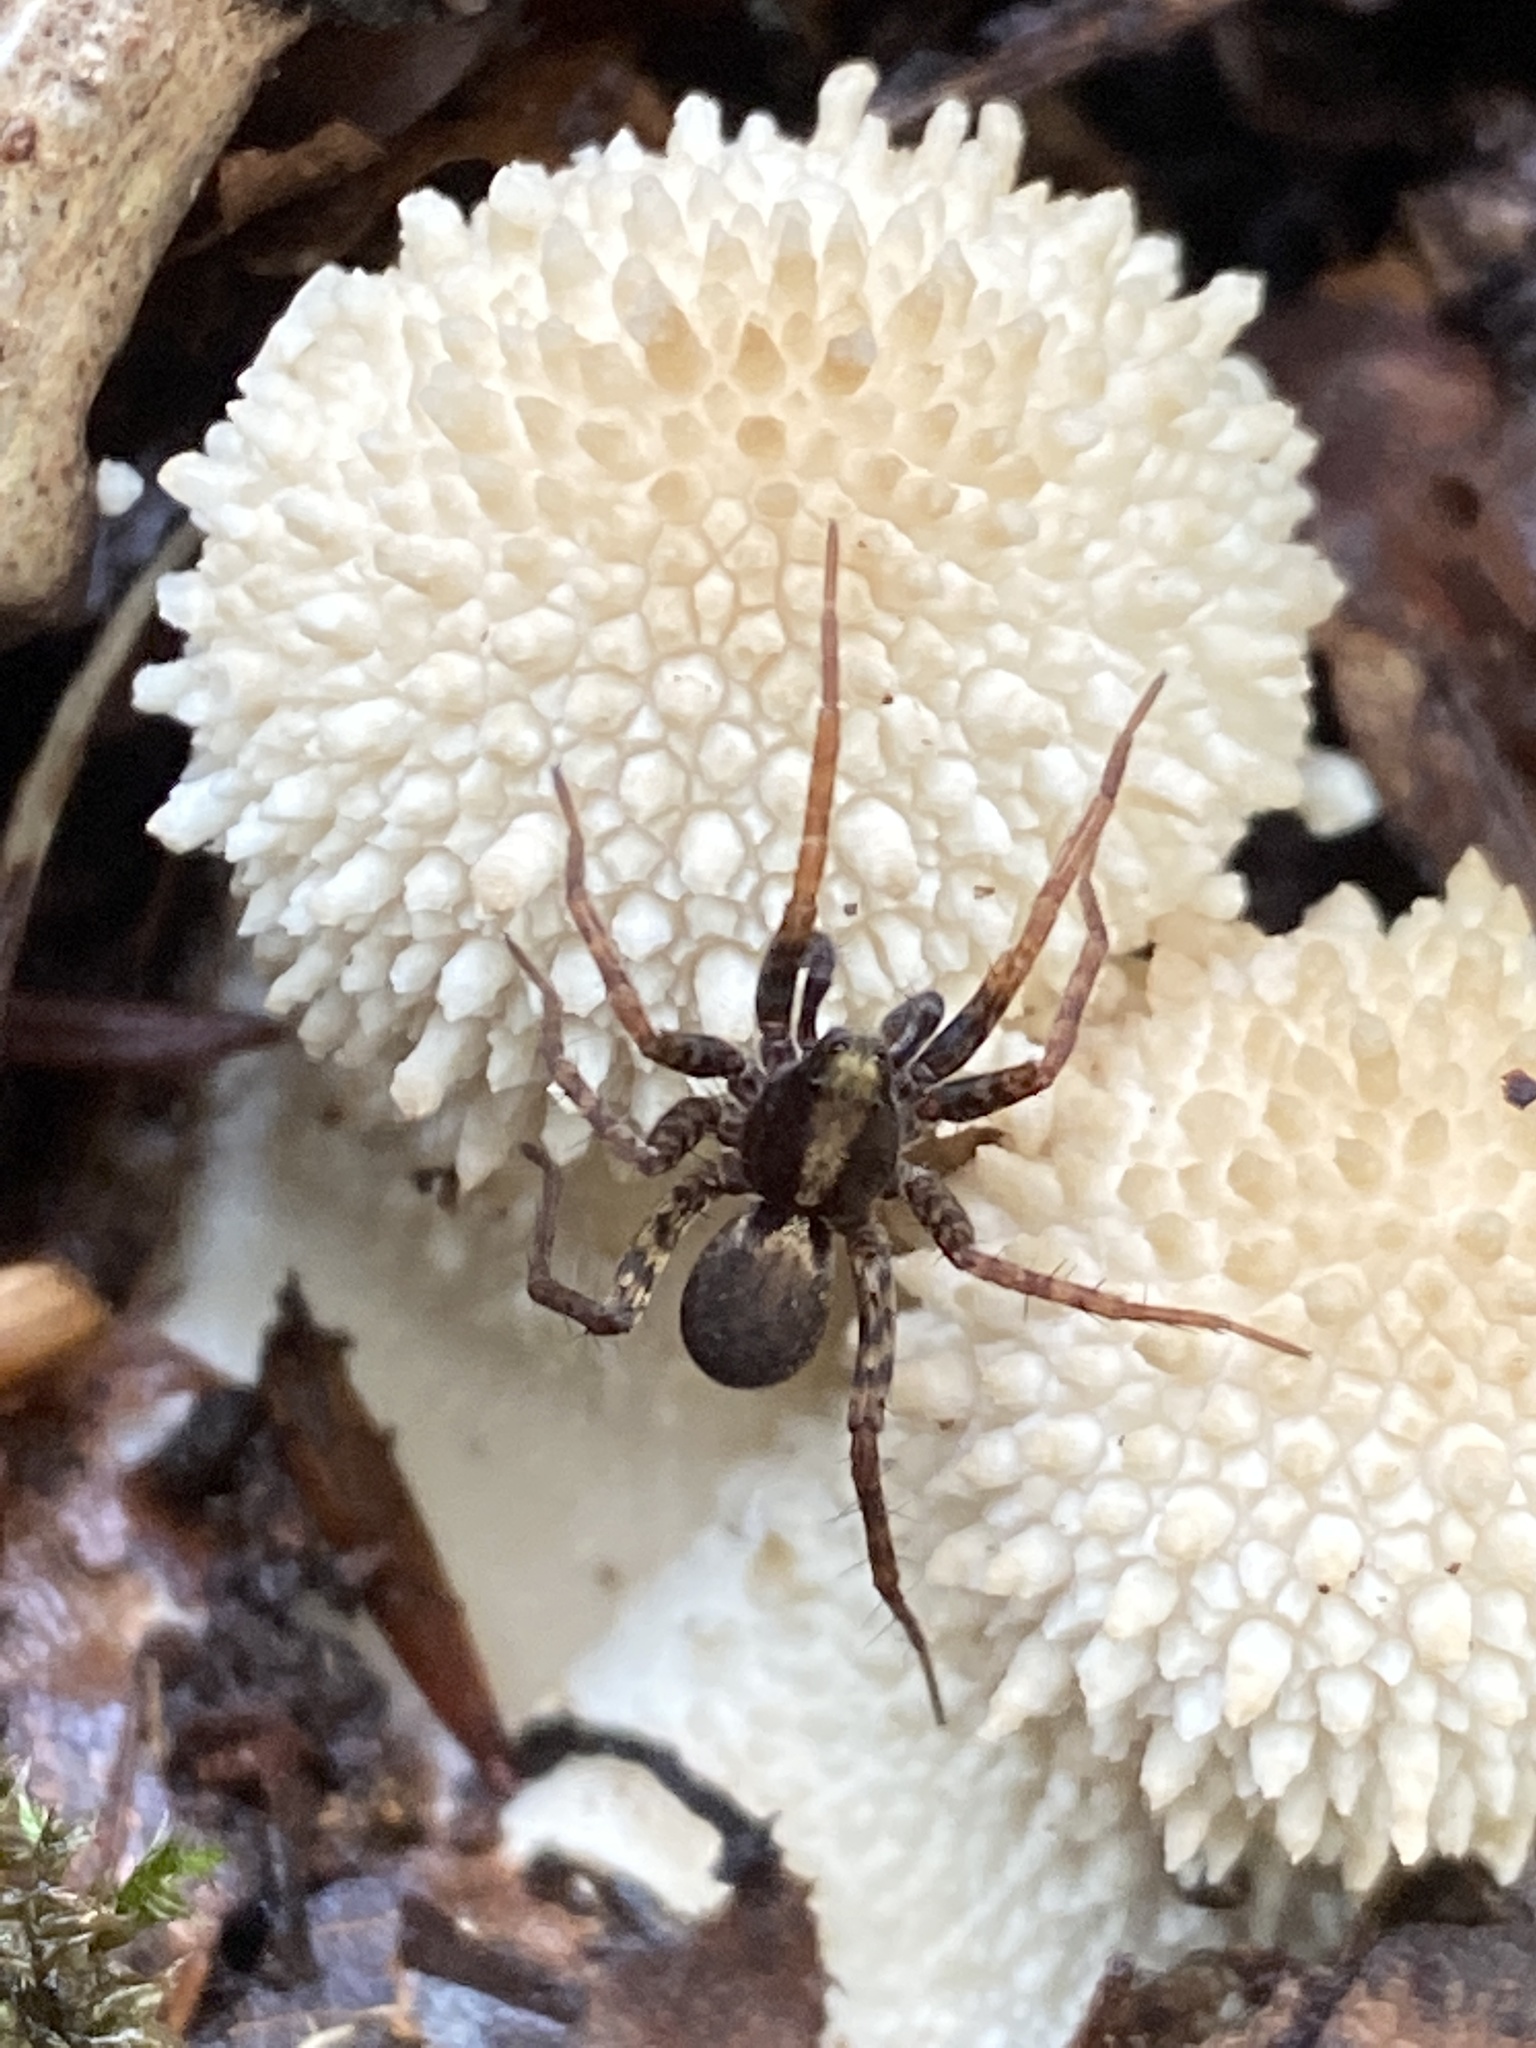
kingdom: Animalia
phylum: Arthropoda
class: Arachnida
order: Araneae
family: Lycosidae
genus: Pardosa
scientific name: Pardosa
